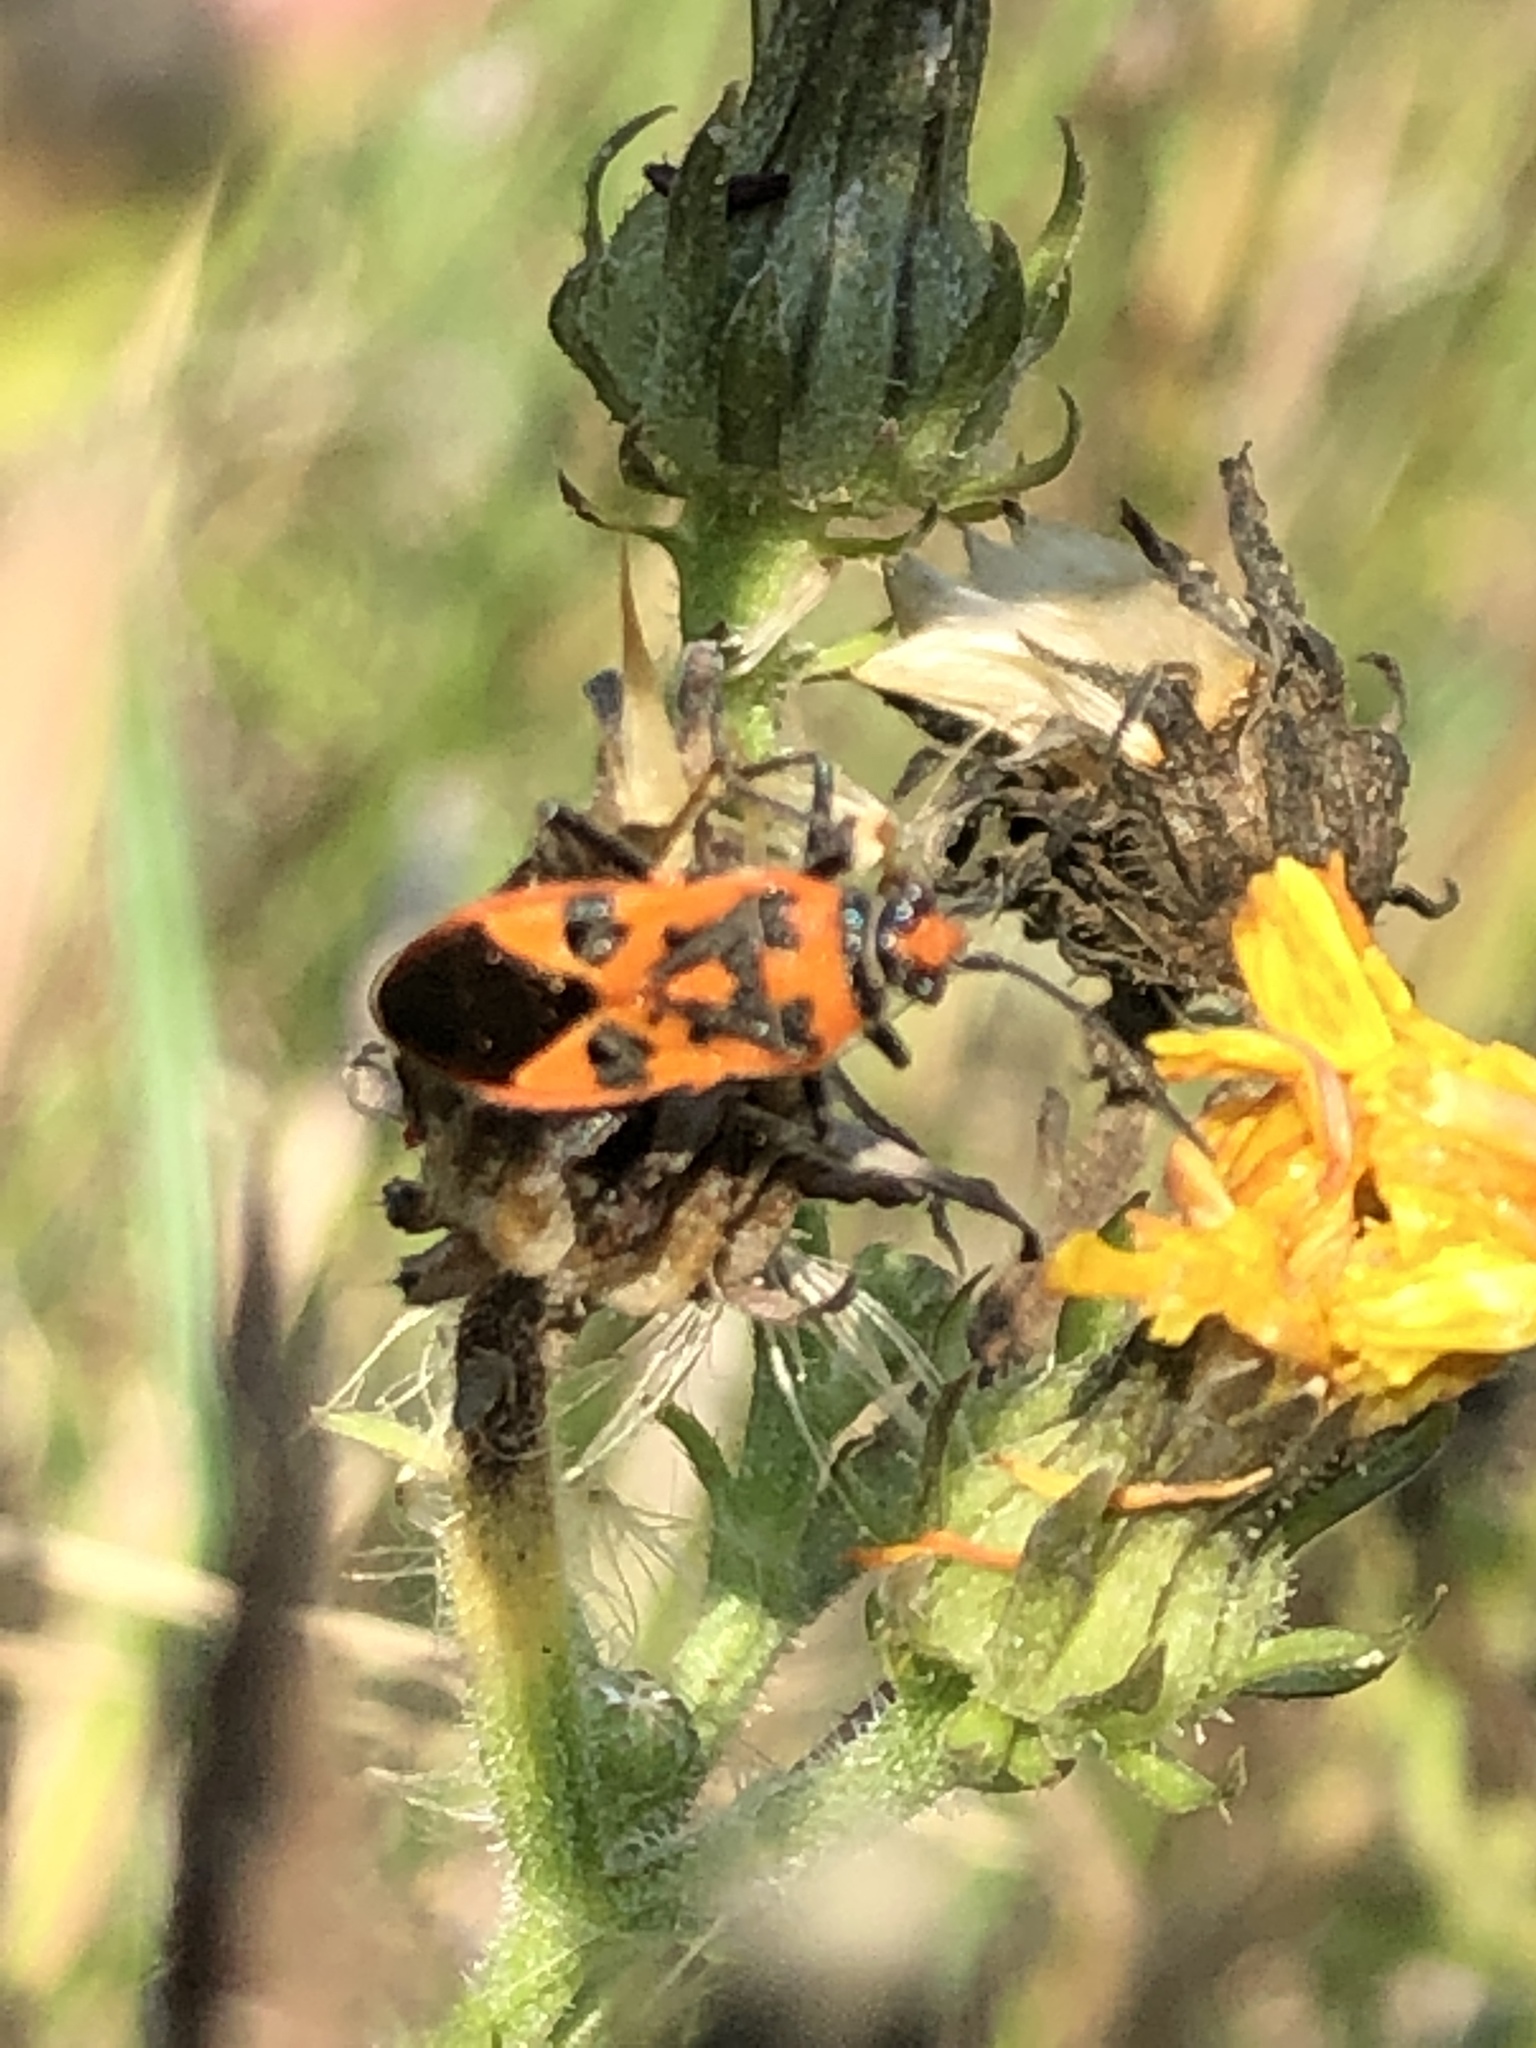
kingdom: Animalia
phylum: Arthropoda
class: Insecta
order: Hemiptera
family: Rhopalidae
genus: Corizus
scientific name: Corizus hyoscyami
